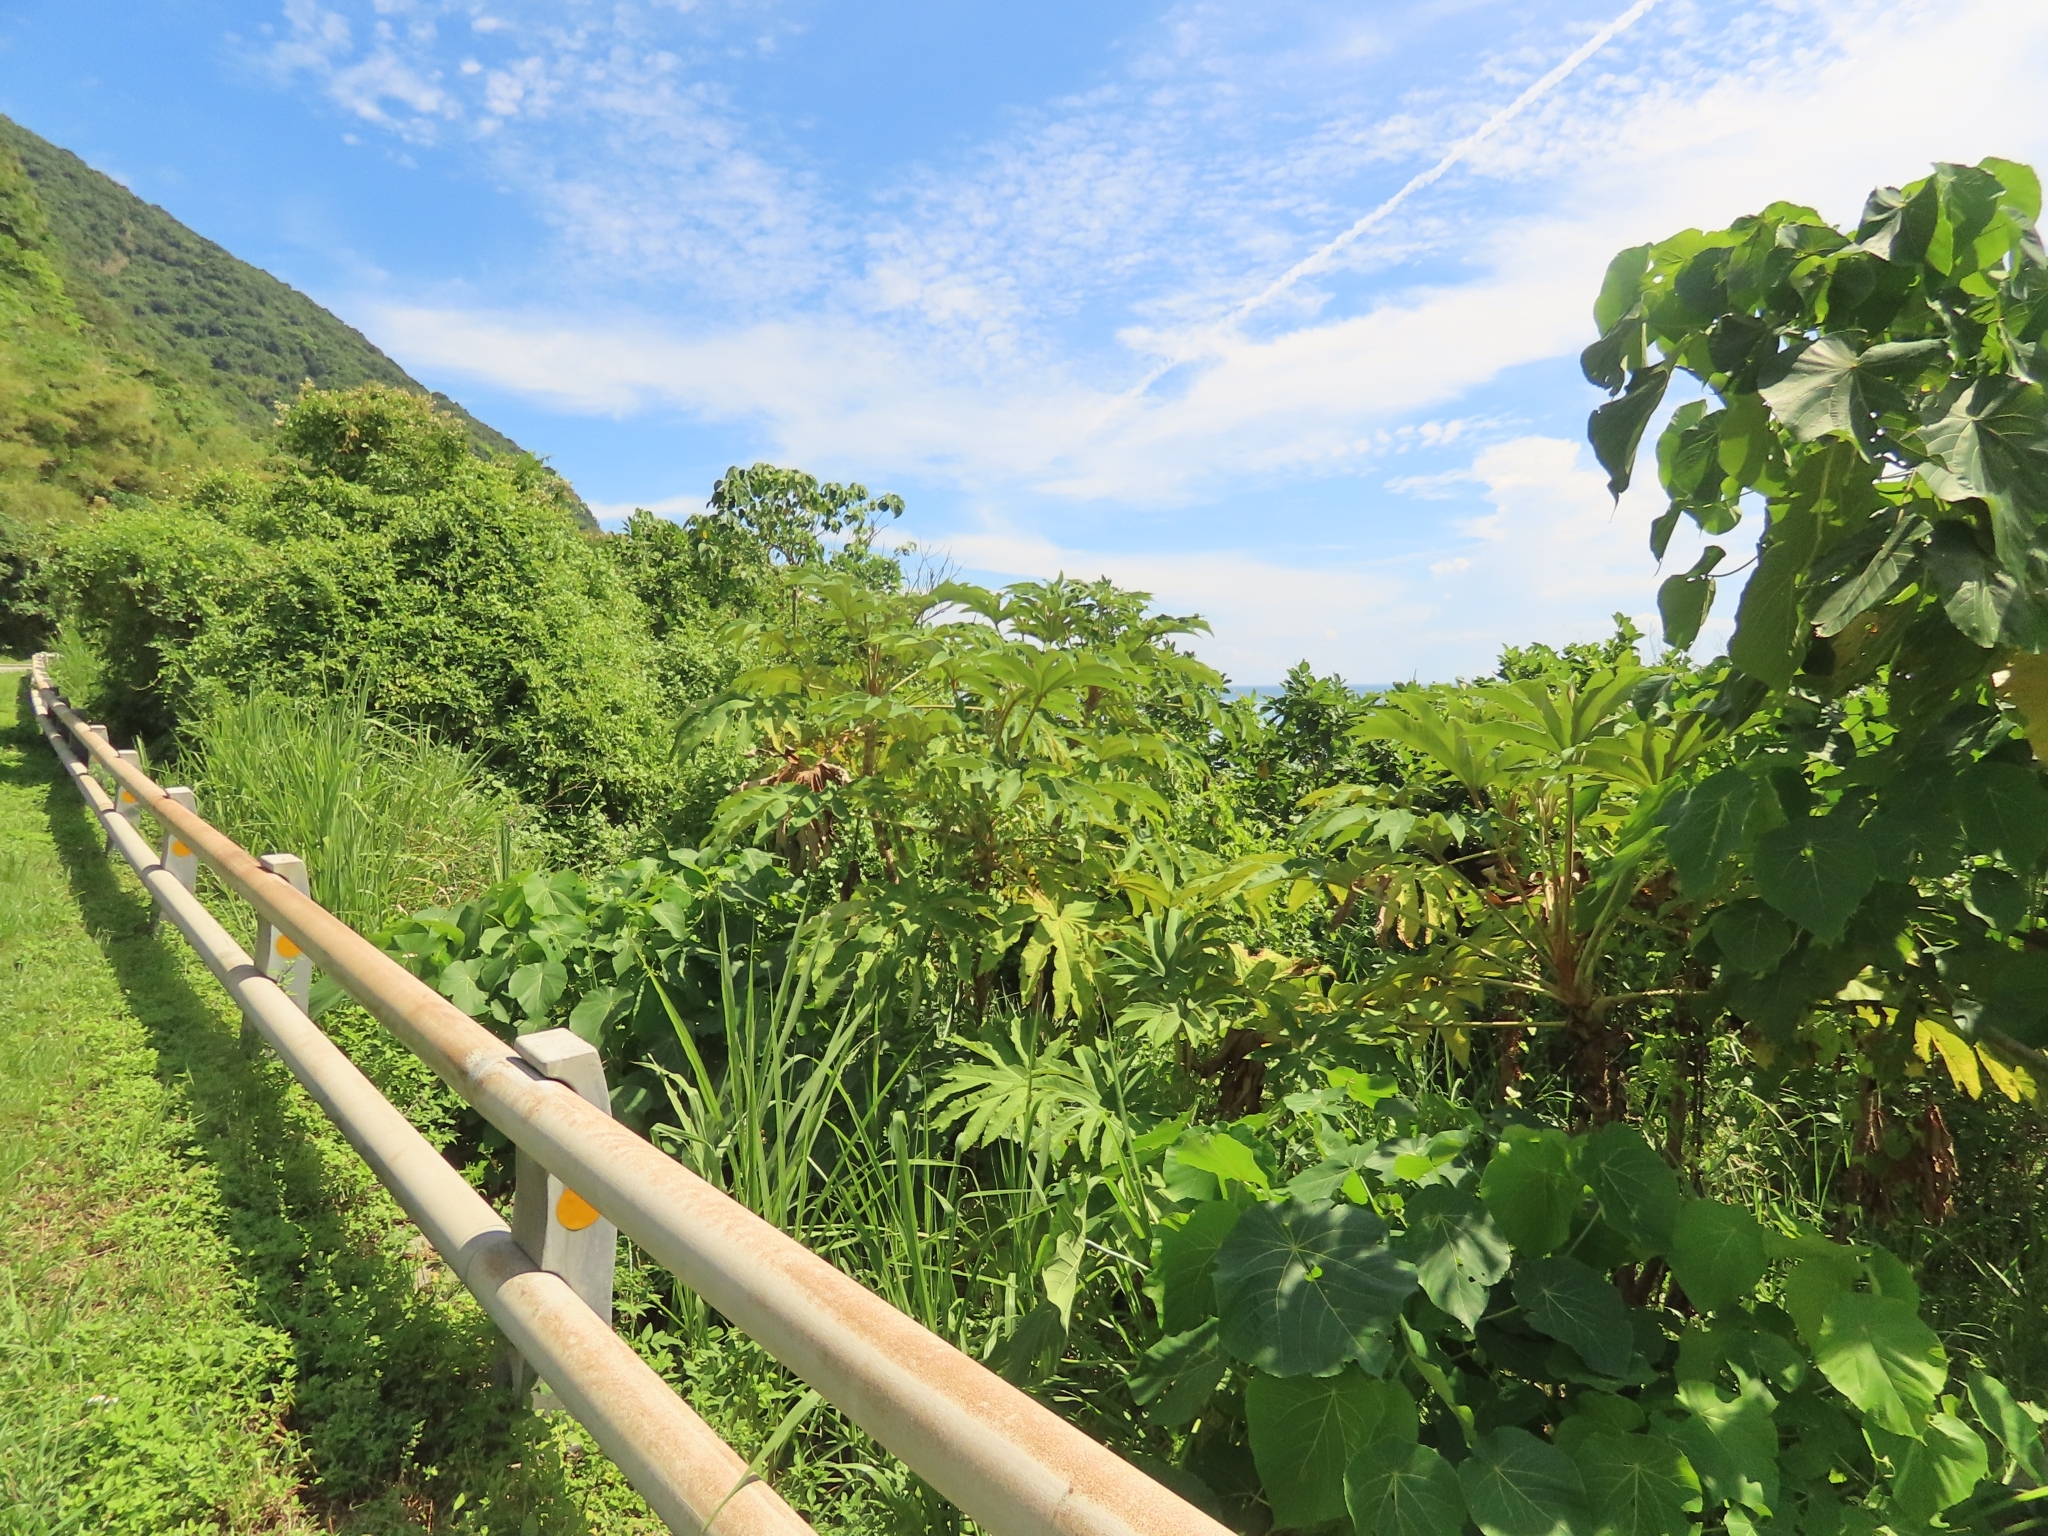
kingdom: Plantae
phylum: Tracheophyta
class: Magnoliopsida
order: Apiales
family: Araliaceae
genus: Tetrapanax
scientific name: Tetrapanax papyrifer
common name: Rice-paper plant
